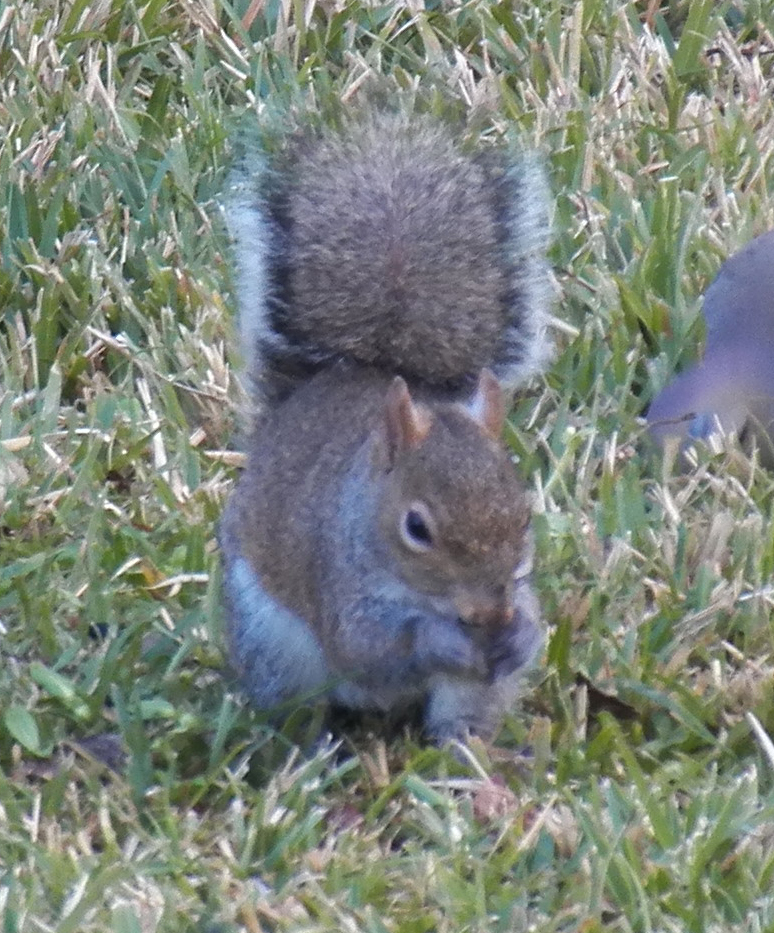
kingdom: Animalia
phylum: Chordata
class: Mammalia
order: Rodentia
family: Sciuridae
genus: Sciurus
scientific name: Sciurus carolinensis
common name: Eastern gray squirrel
